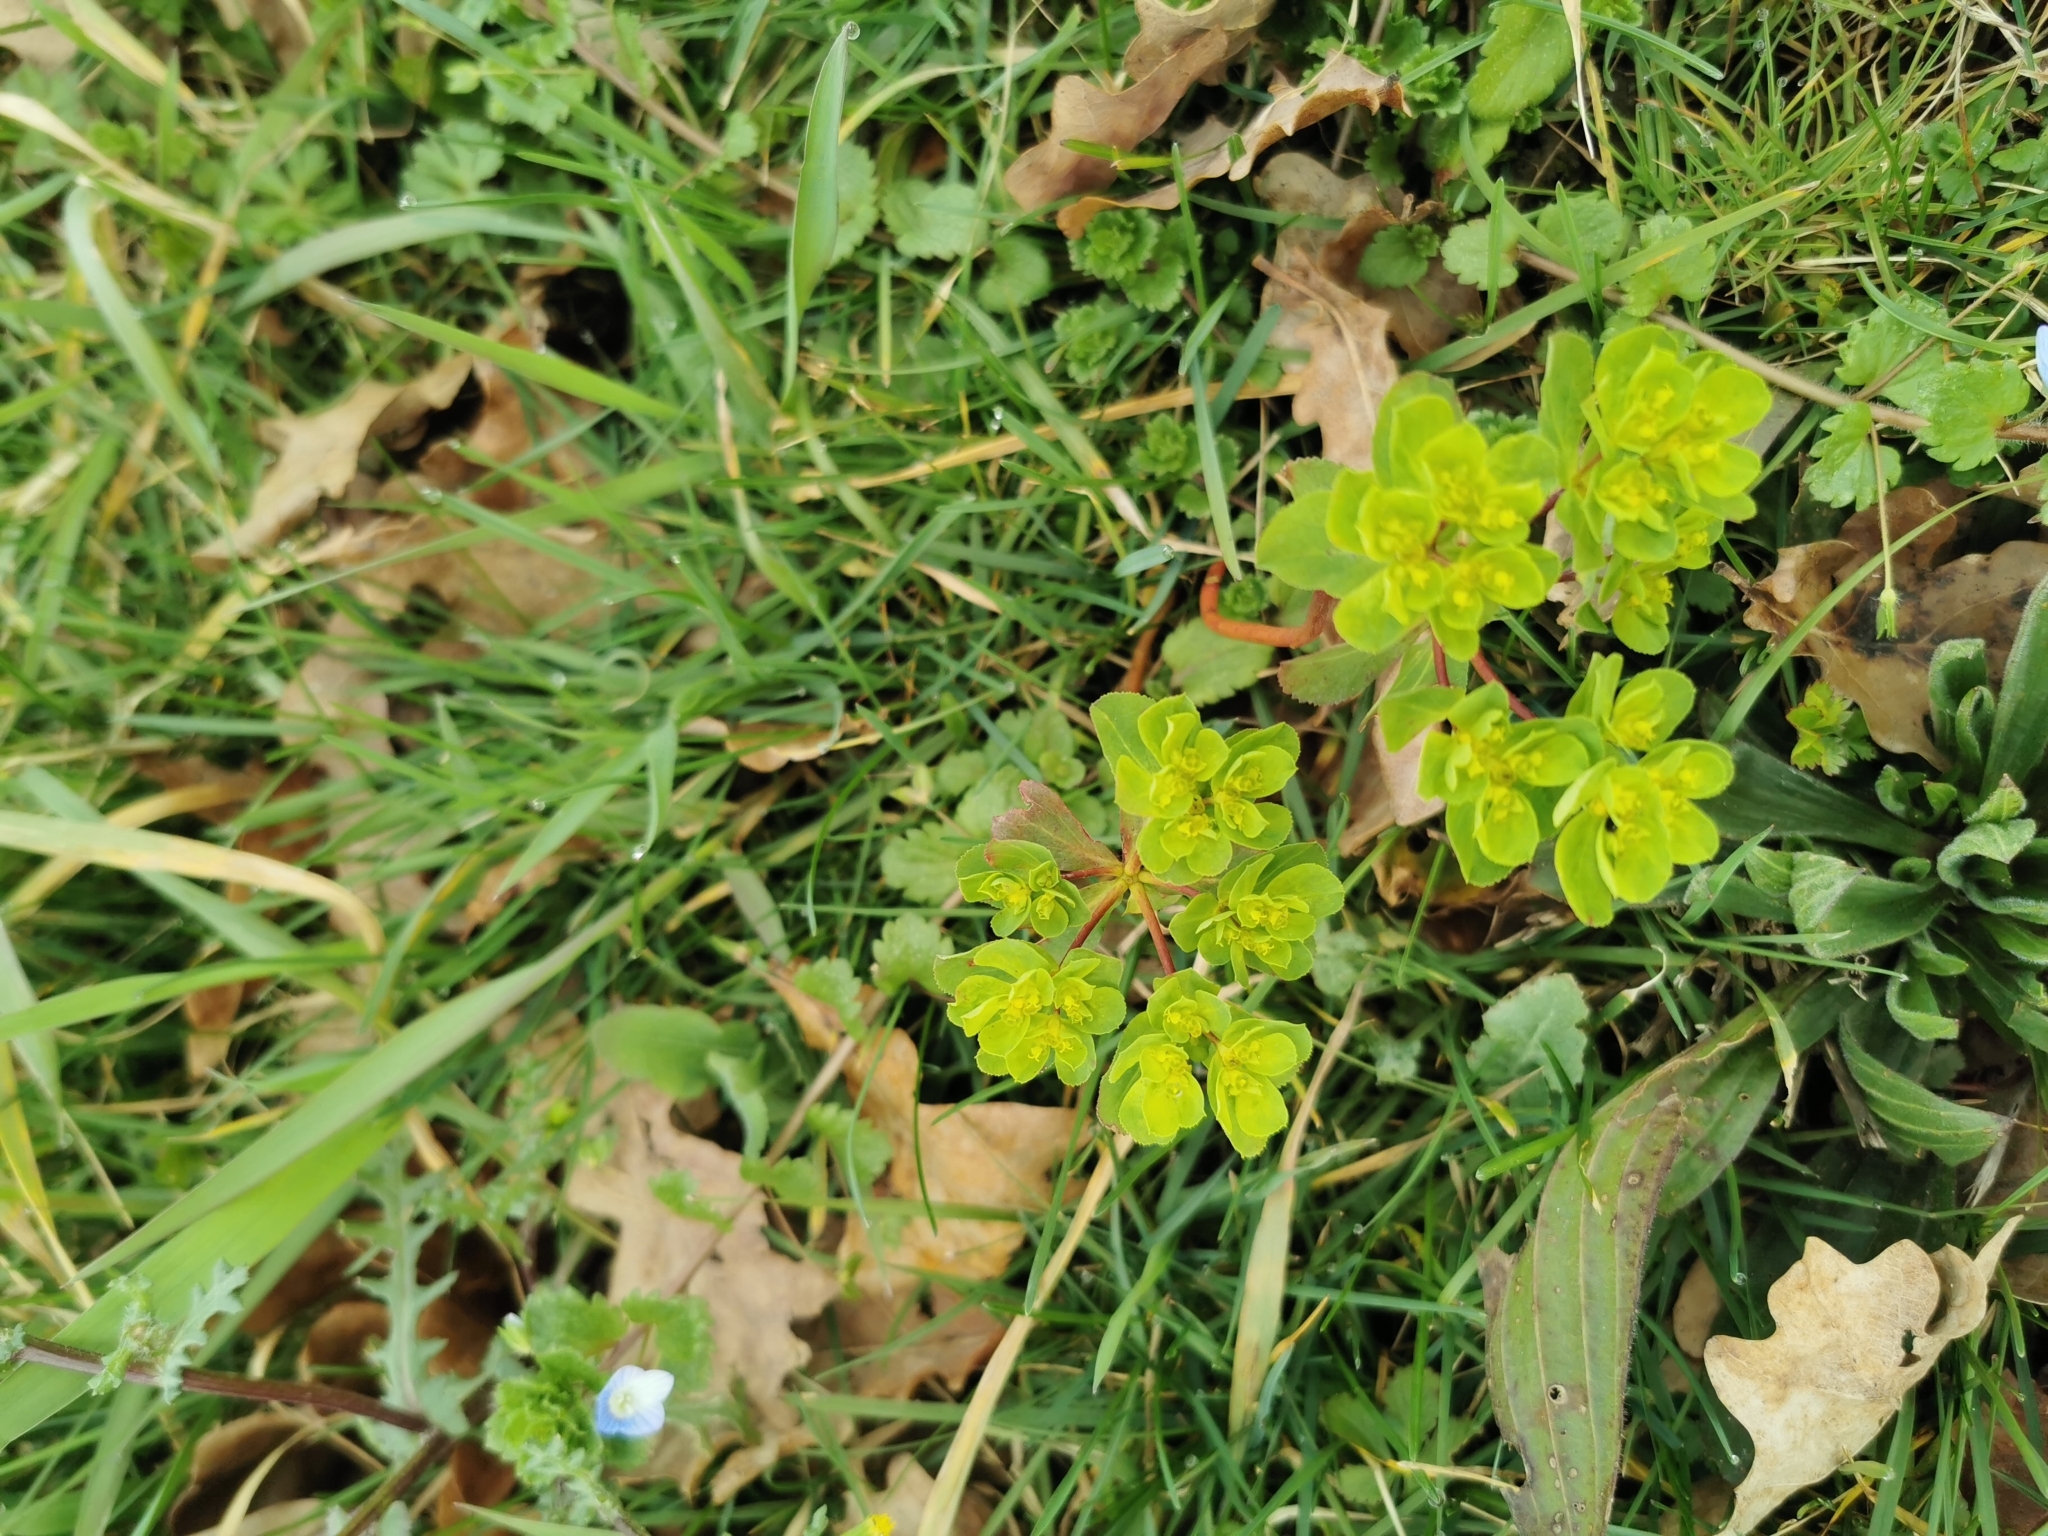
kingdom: Plantae
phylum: Tracheophyta
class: Magnoliopsida
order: Malpighiales
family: Euphorbiaceae
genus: Euphorbia
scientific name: Euphorbia helioscopia
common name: Sun spurge
